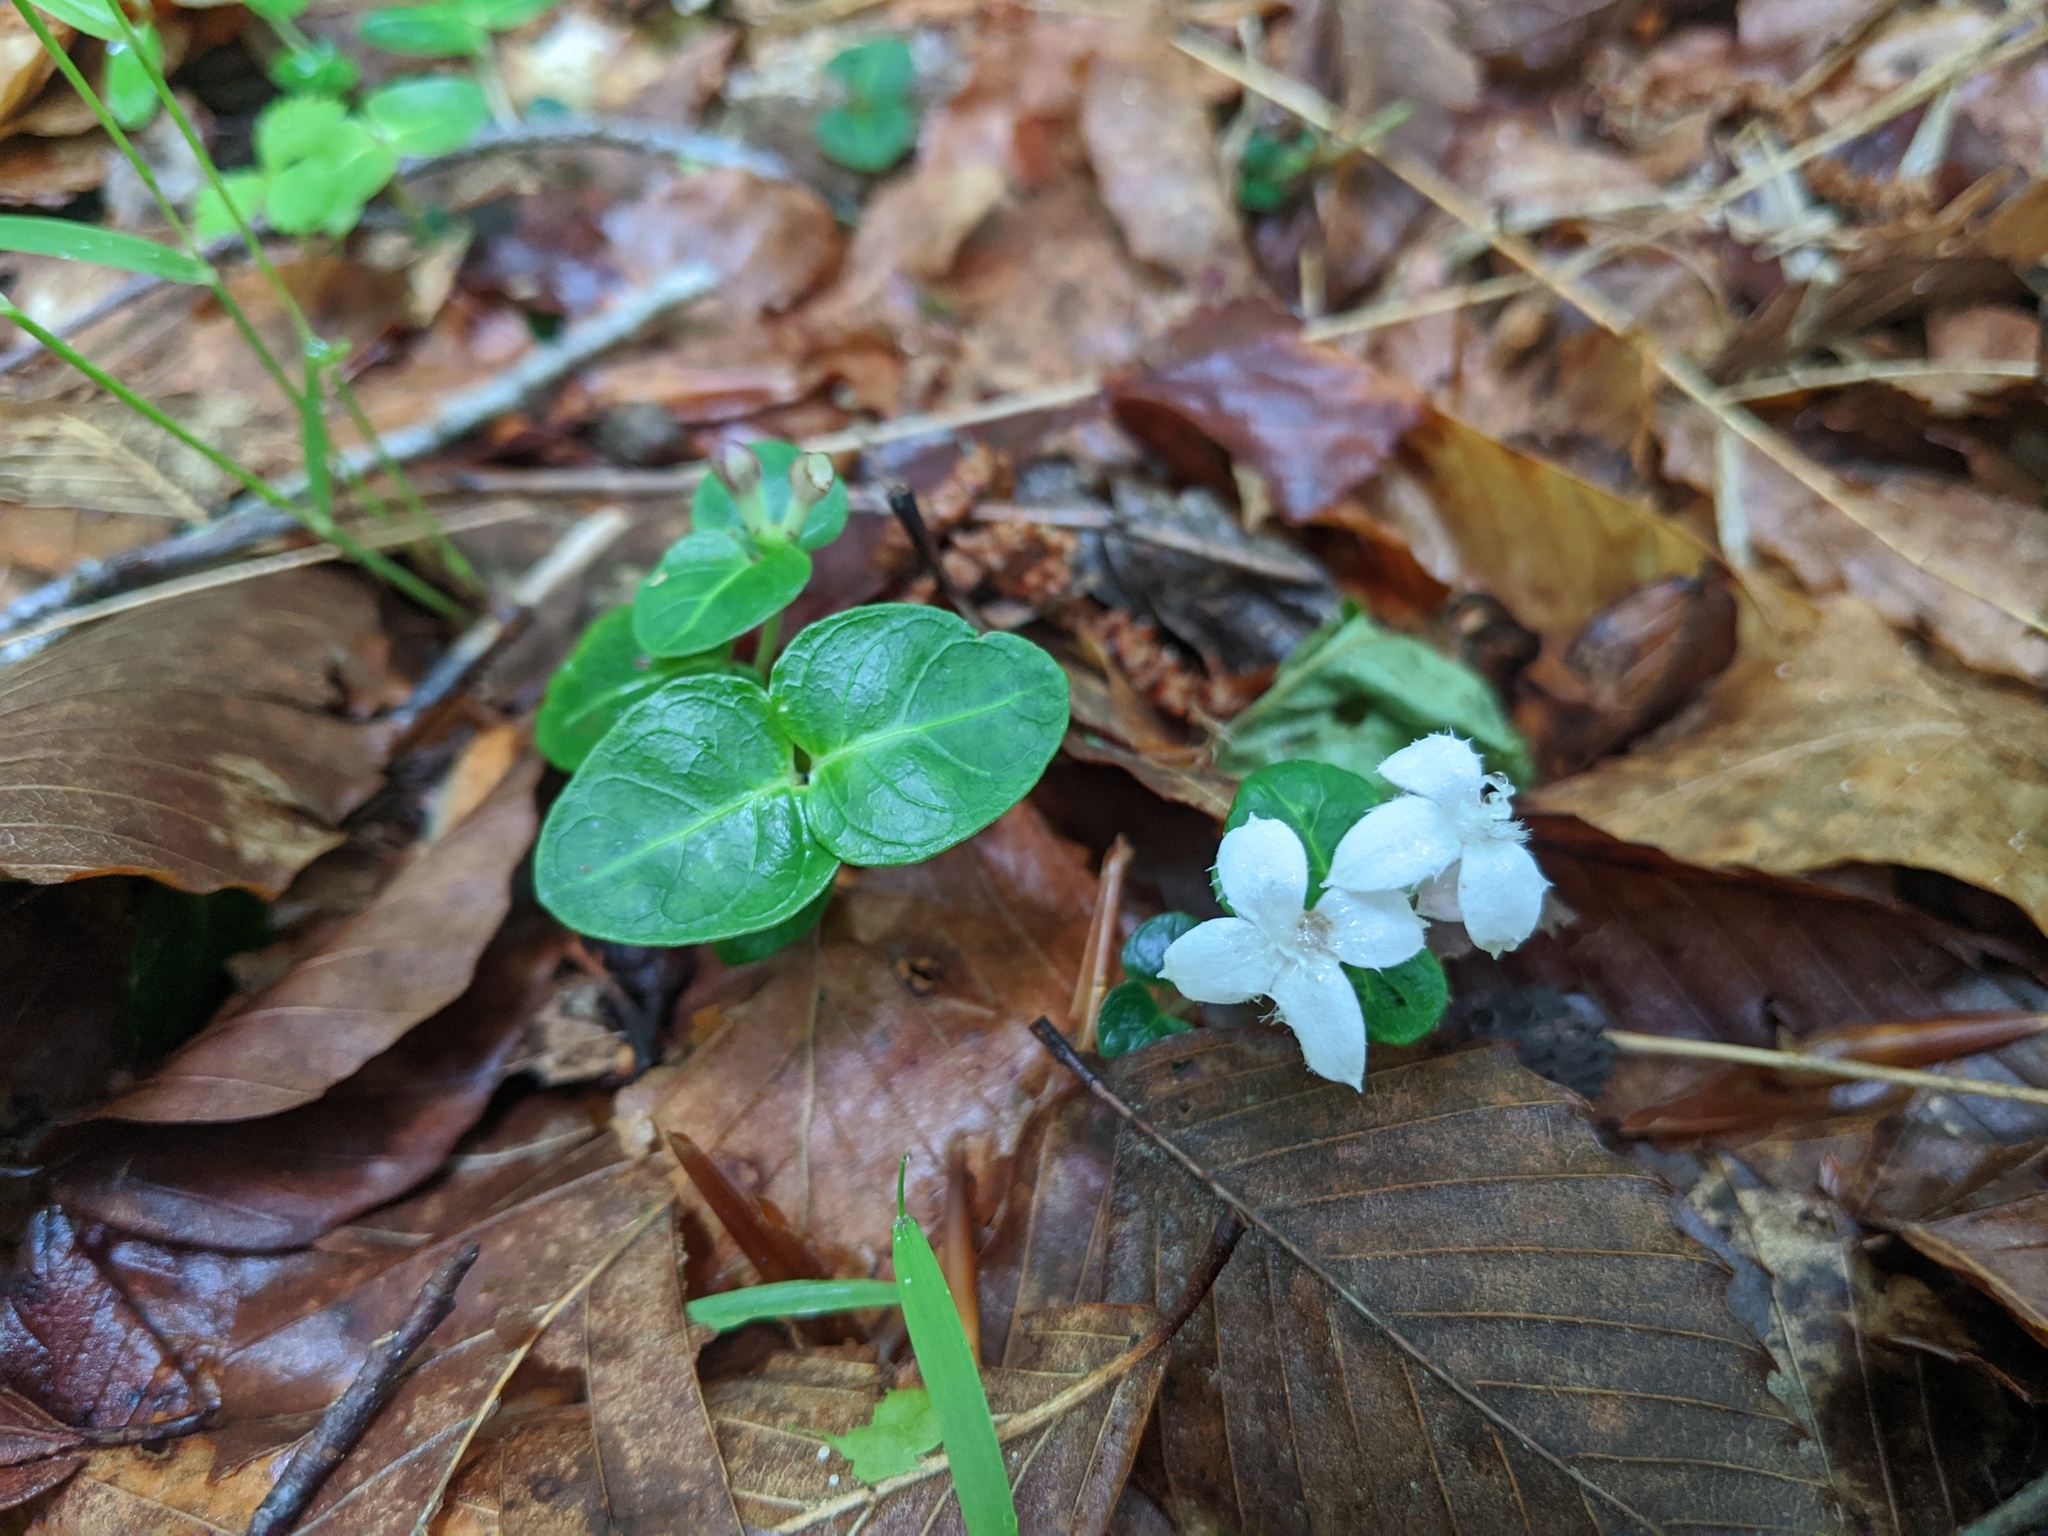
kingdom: Plantae
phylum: Tracheophyta
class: Magnoliopsida
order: Gentianales
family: Rubiaceae
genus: Mitchella
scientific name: Mitchella repens
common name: Partridge-berry
